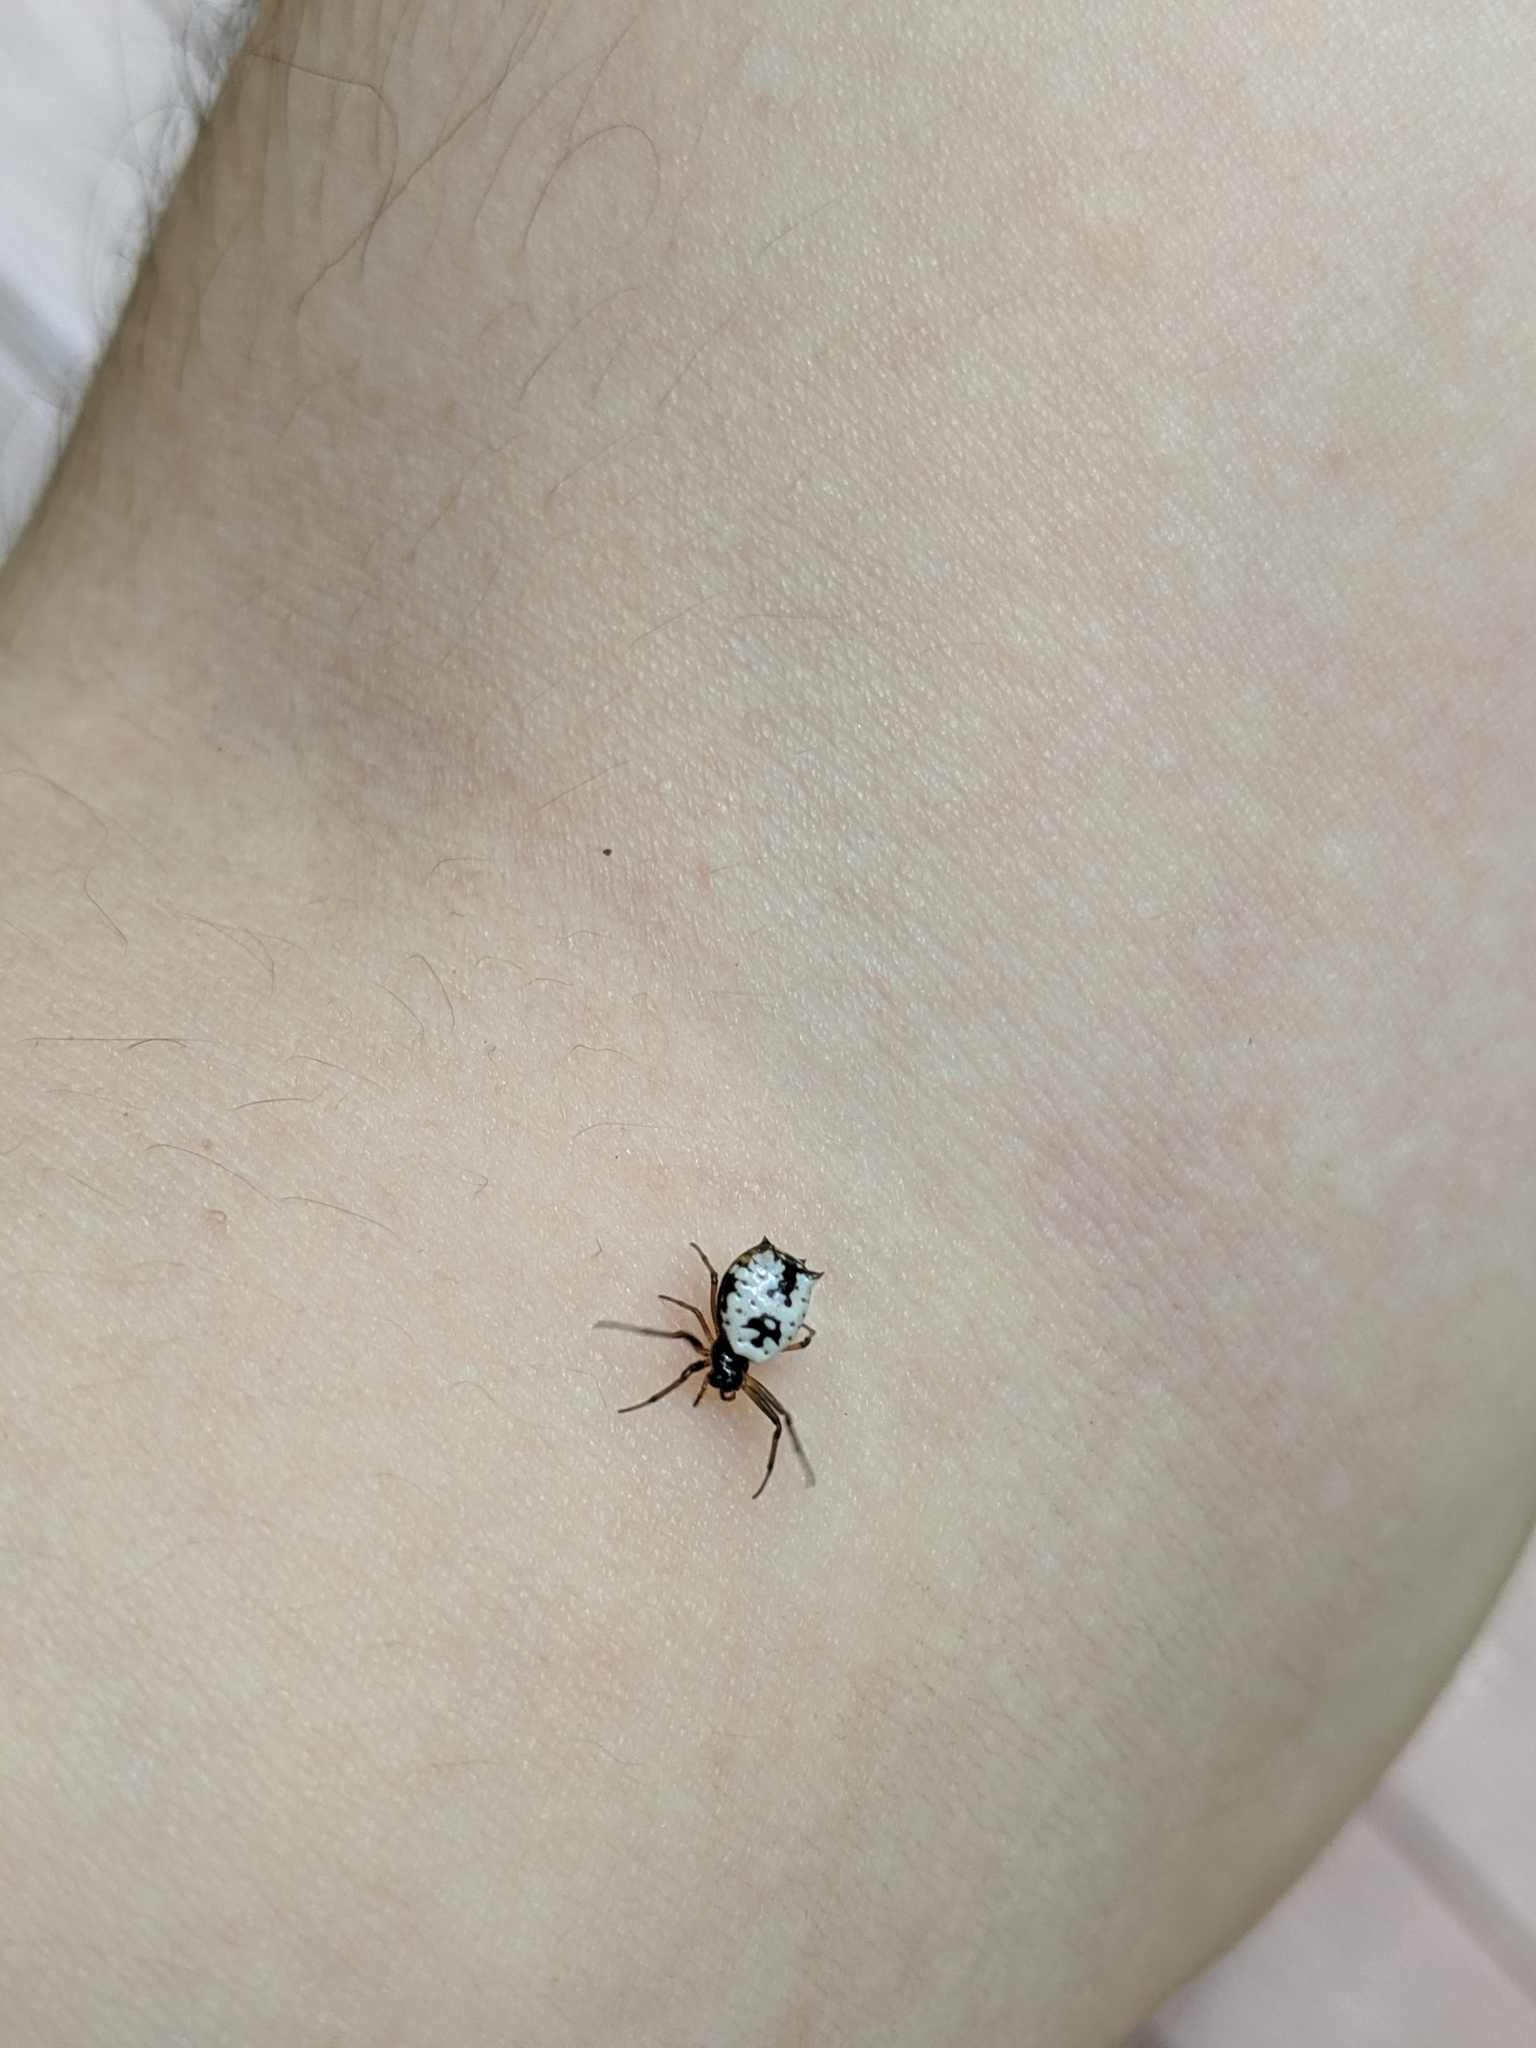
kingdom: Animalia
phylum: Arthropoda
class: Arachnida
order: Araneae
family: Araneidae
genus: Micrathena
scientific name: Micrathena mitrata
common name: Orb weavers
